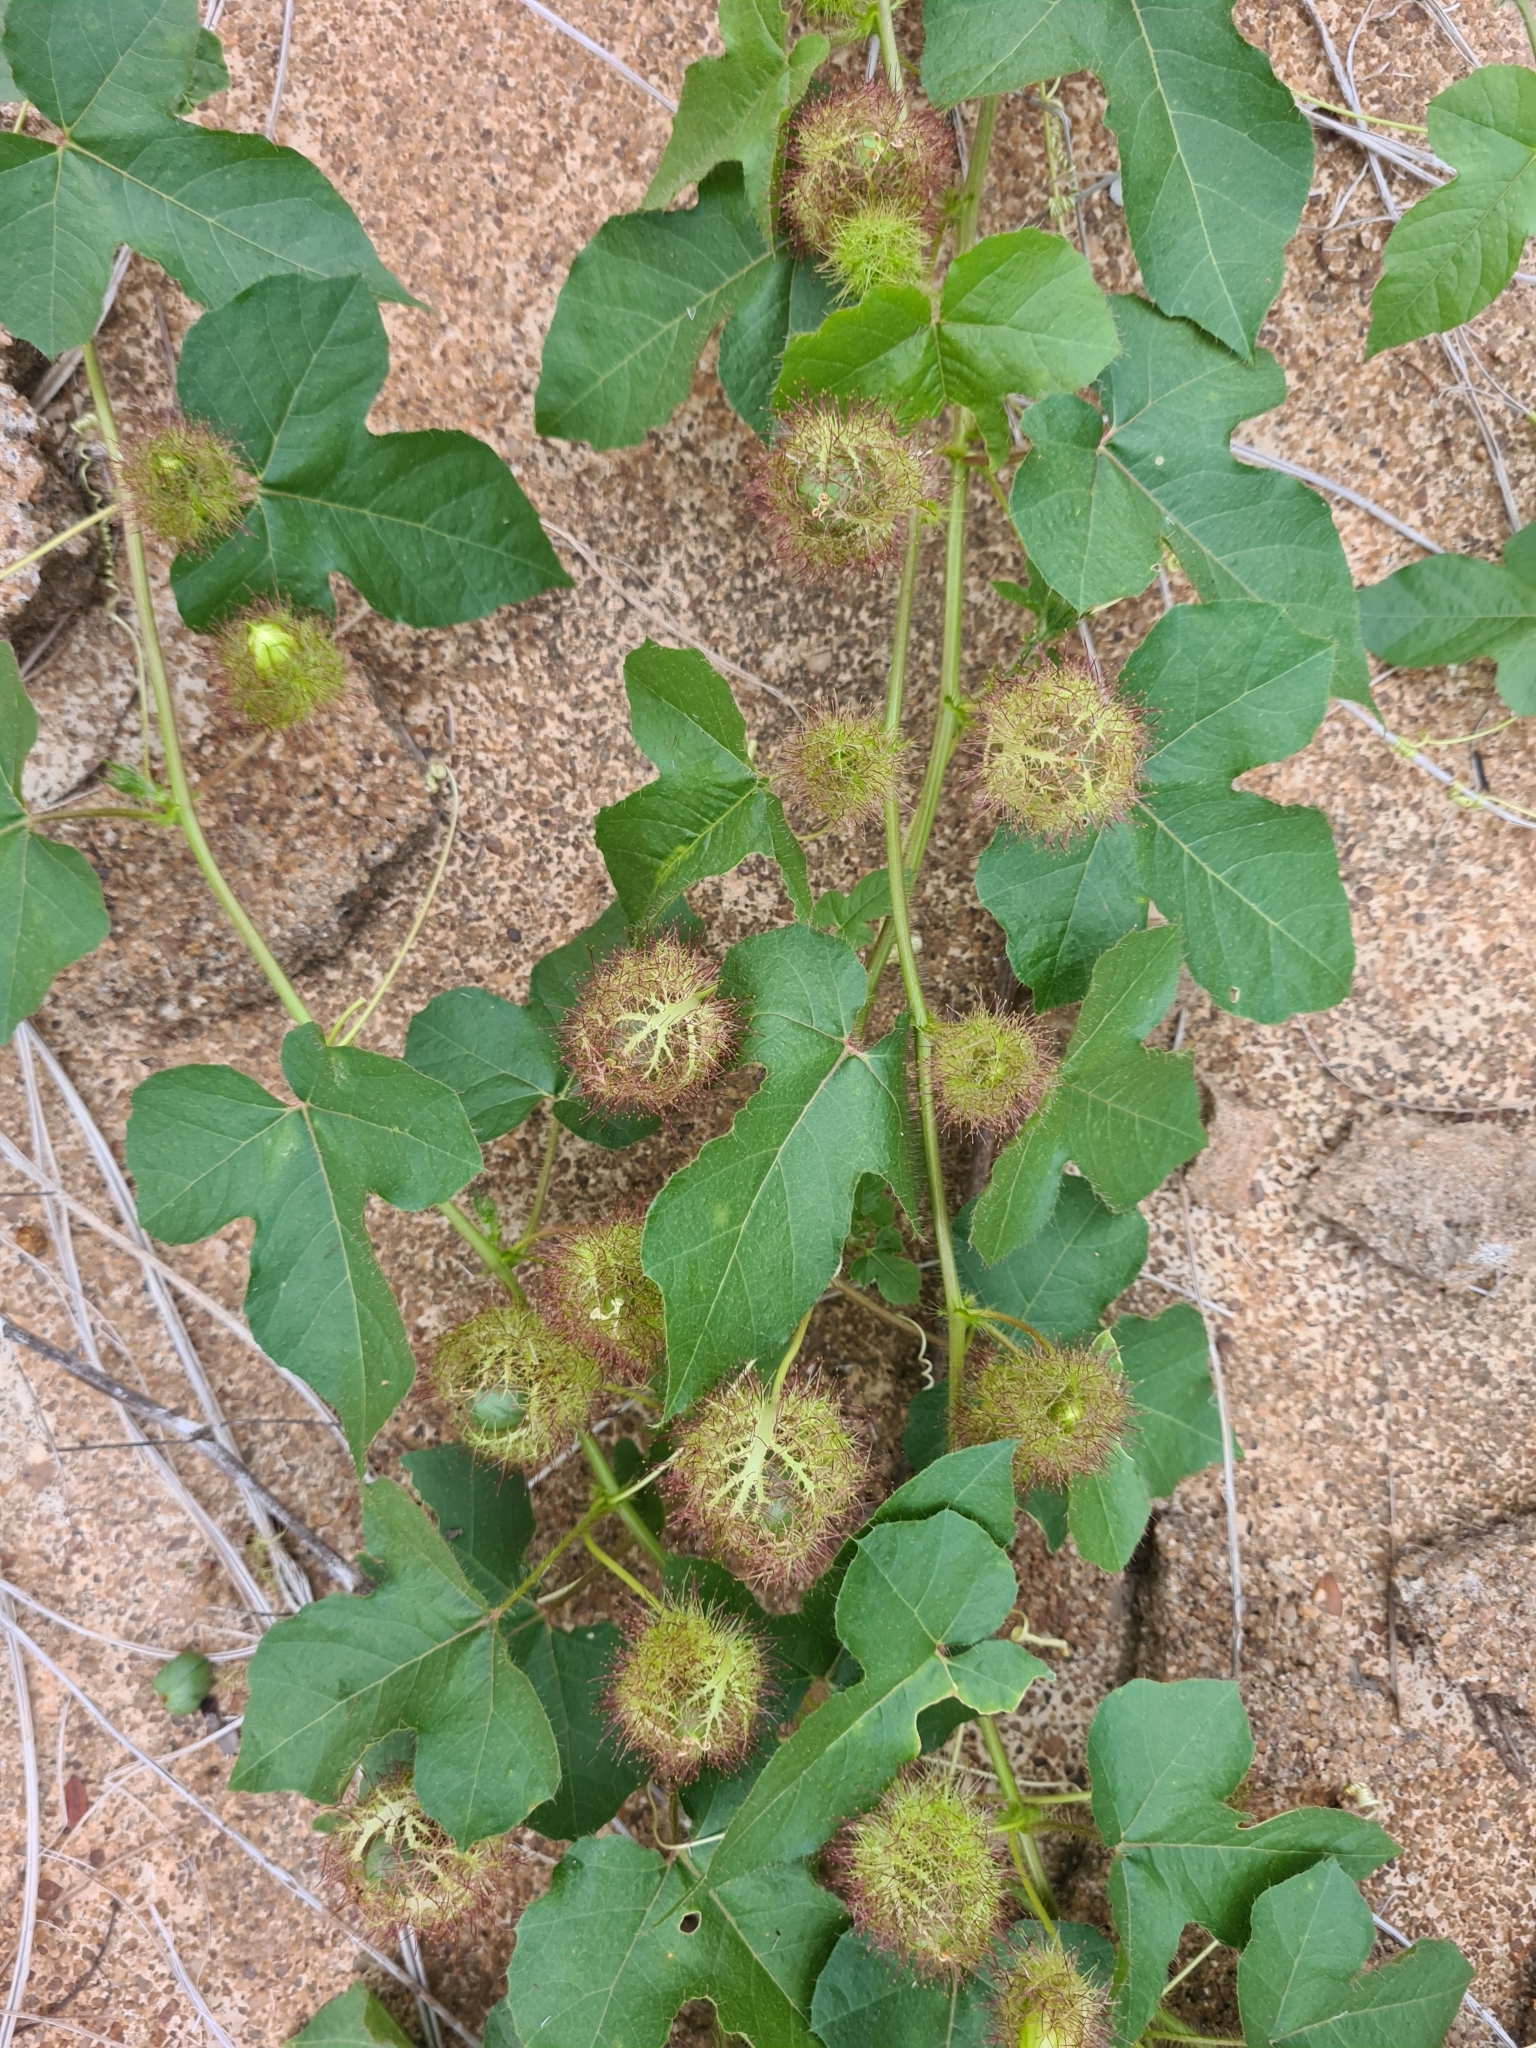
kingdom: Plantae
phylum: Tracheophyta
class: Magnoliopsida
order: Malpighiales
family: Passifloraceae
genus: Passiflora
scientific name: Passiflora foetida
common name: Fetid passionflower
